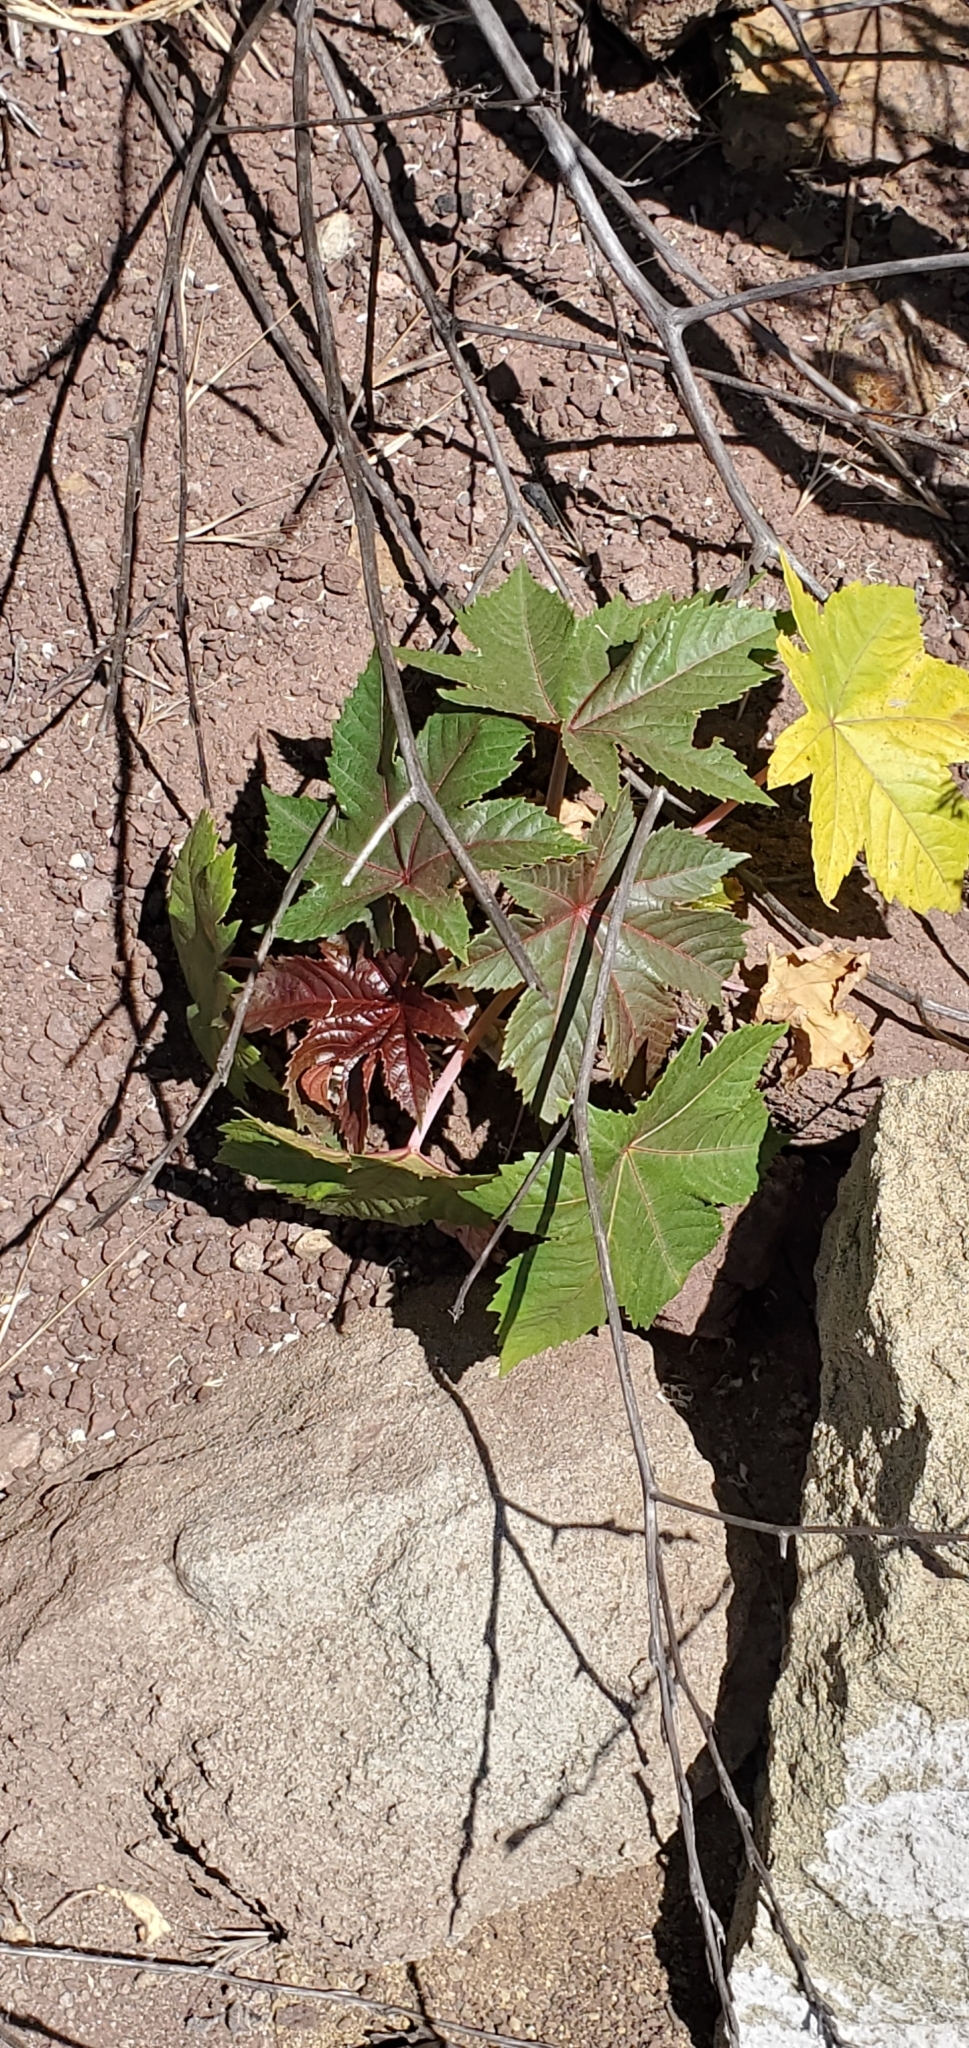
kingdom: Plantae
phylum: Tracheophyta
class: Magnoliopsida
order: Malpighiales
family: Euphorbiaceae
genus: Ricinus
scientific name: Ricinus communis
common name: Castor-oil-plant
